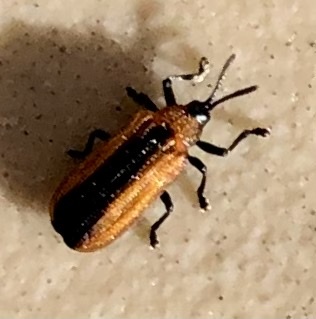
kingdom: Animalia
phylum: Arthropoda
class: Insecta
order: Coleoptera
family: Chrysomelidae
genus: Odontota
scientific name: Odontota dorsalis
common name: Locust leaf-miner beetle
